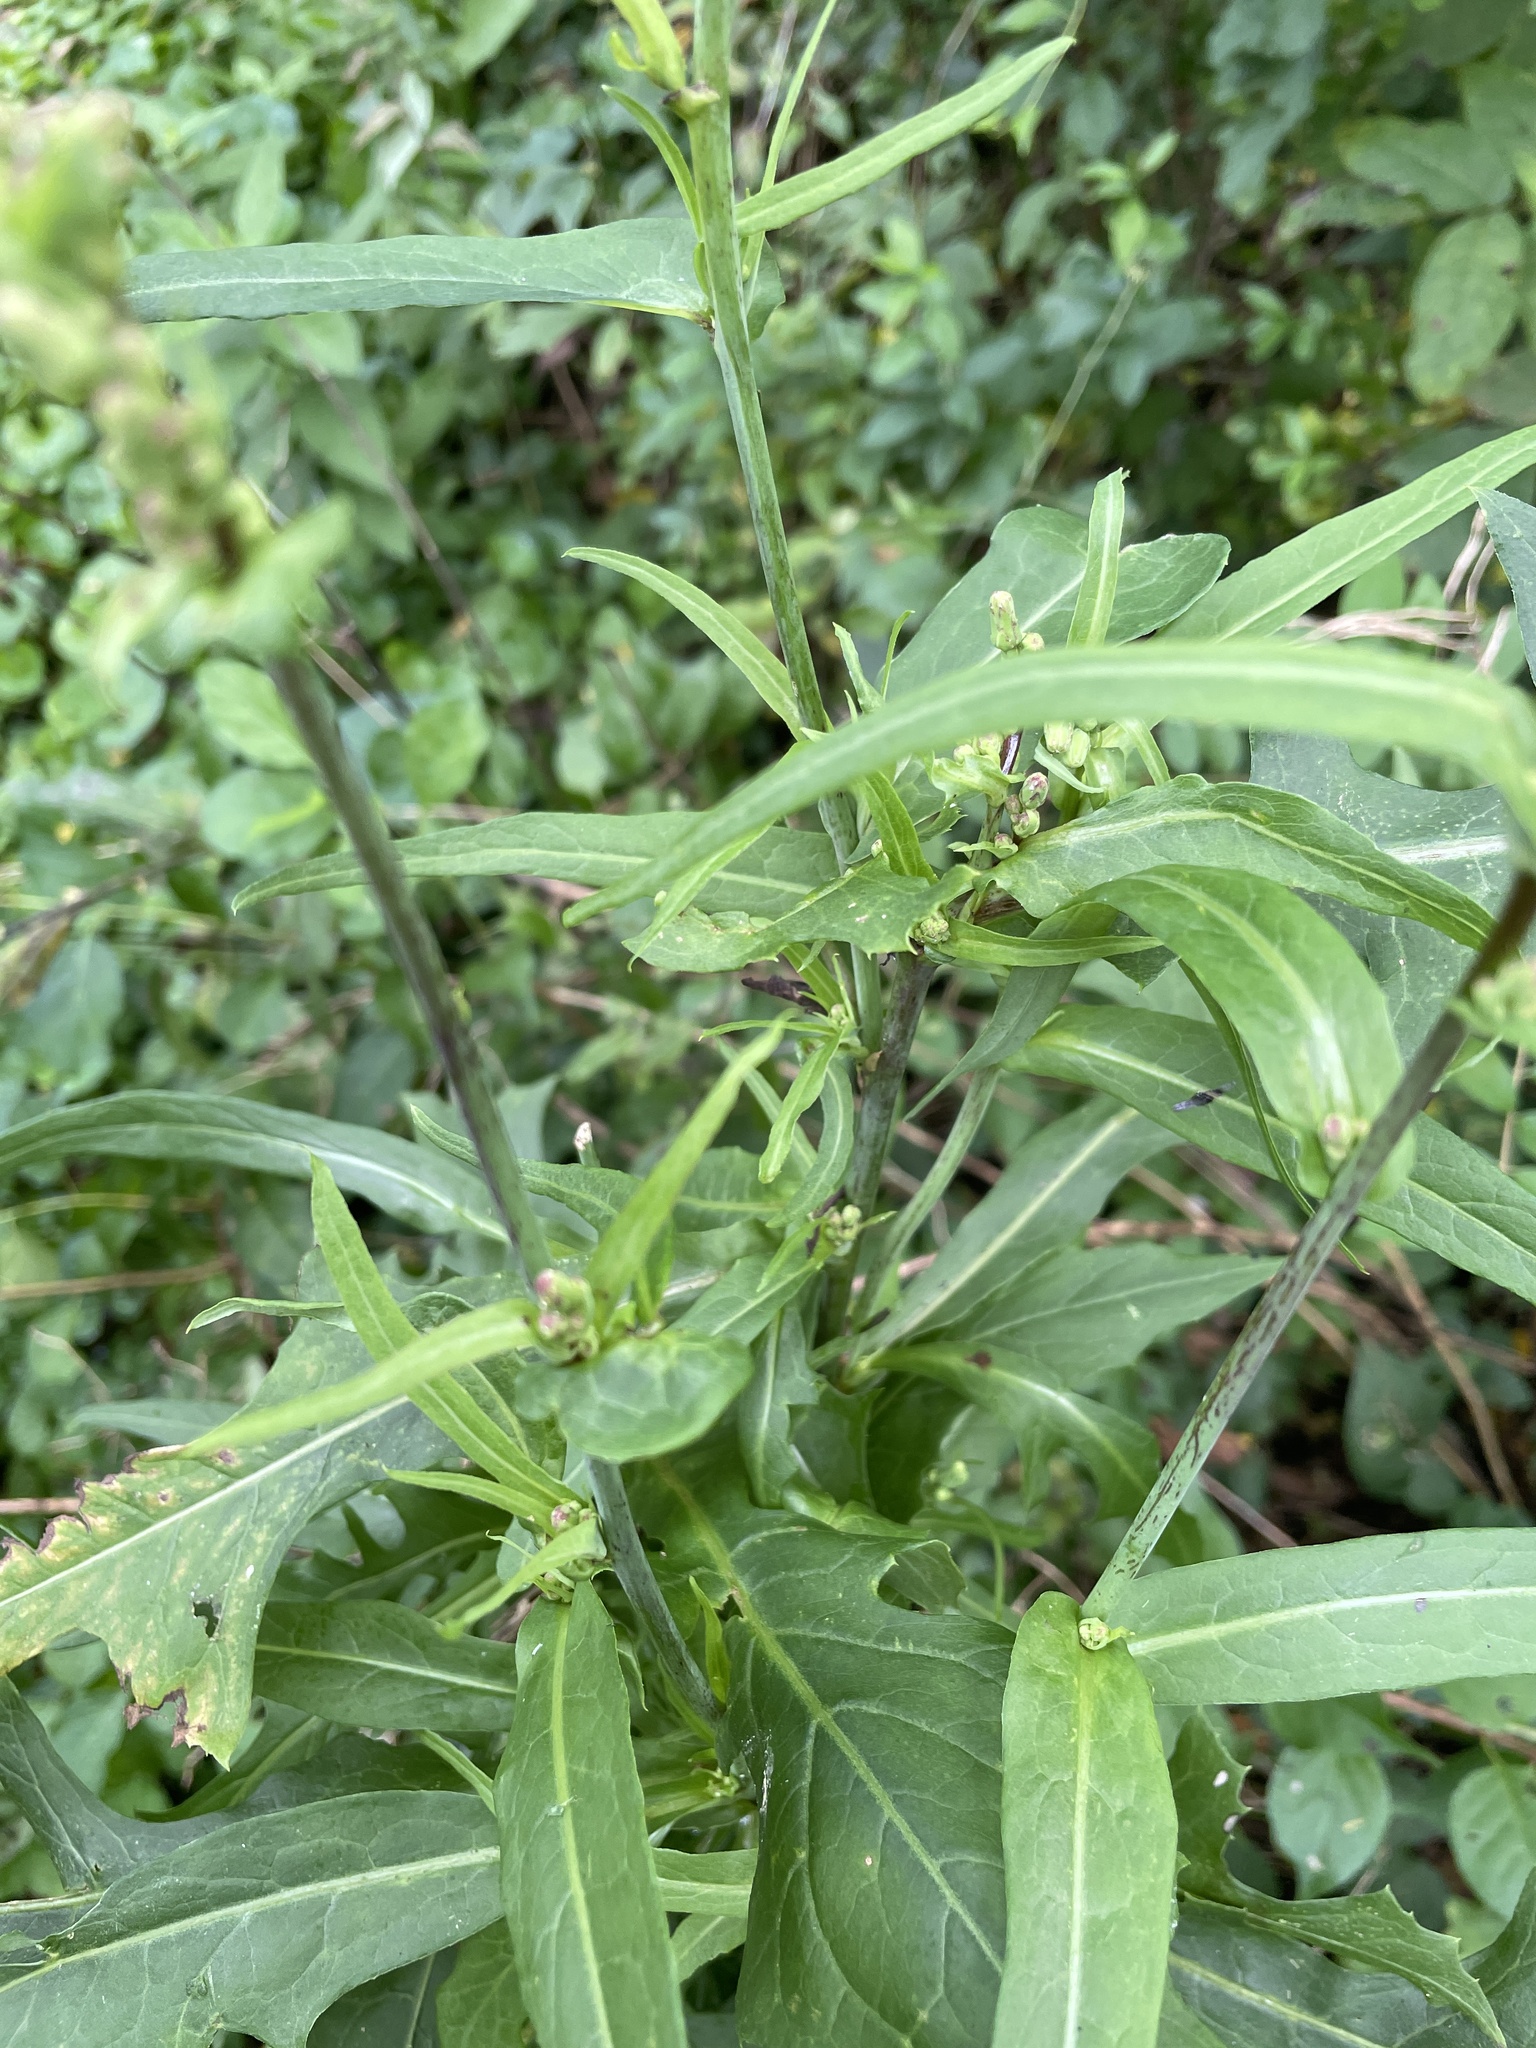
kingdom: Animalia
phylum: Arthropoda
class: Insecta
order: Hymenoptera
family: Cynipidae
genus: Aulacidea
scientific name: Aulacidea
